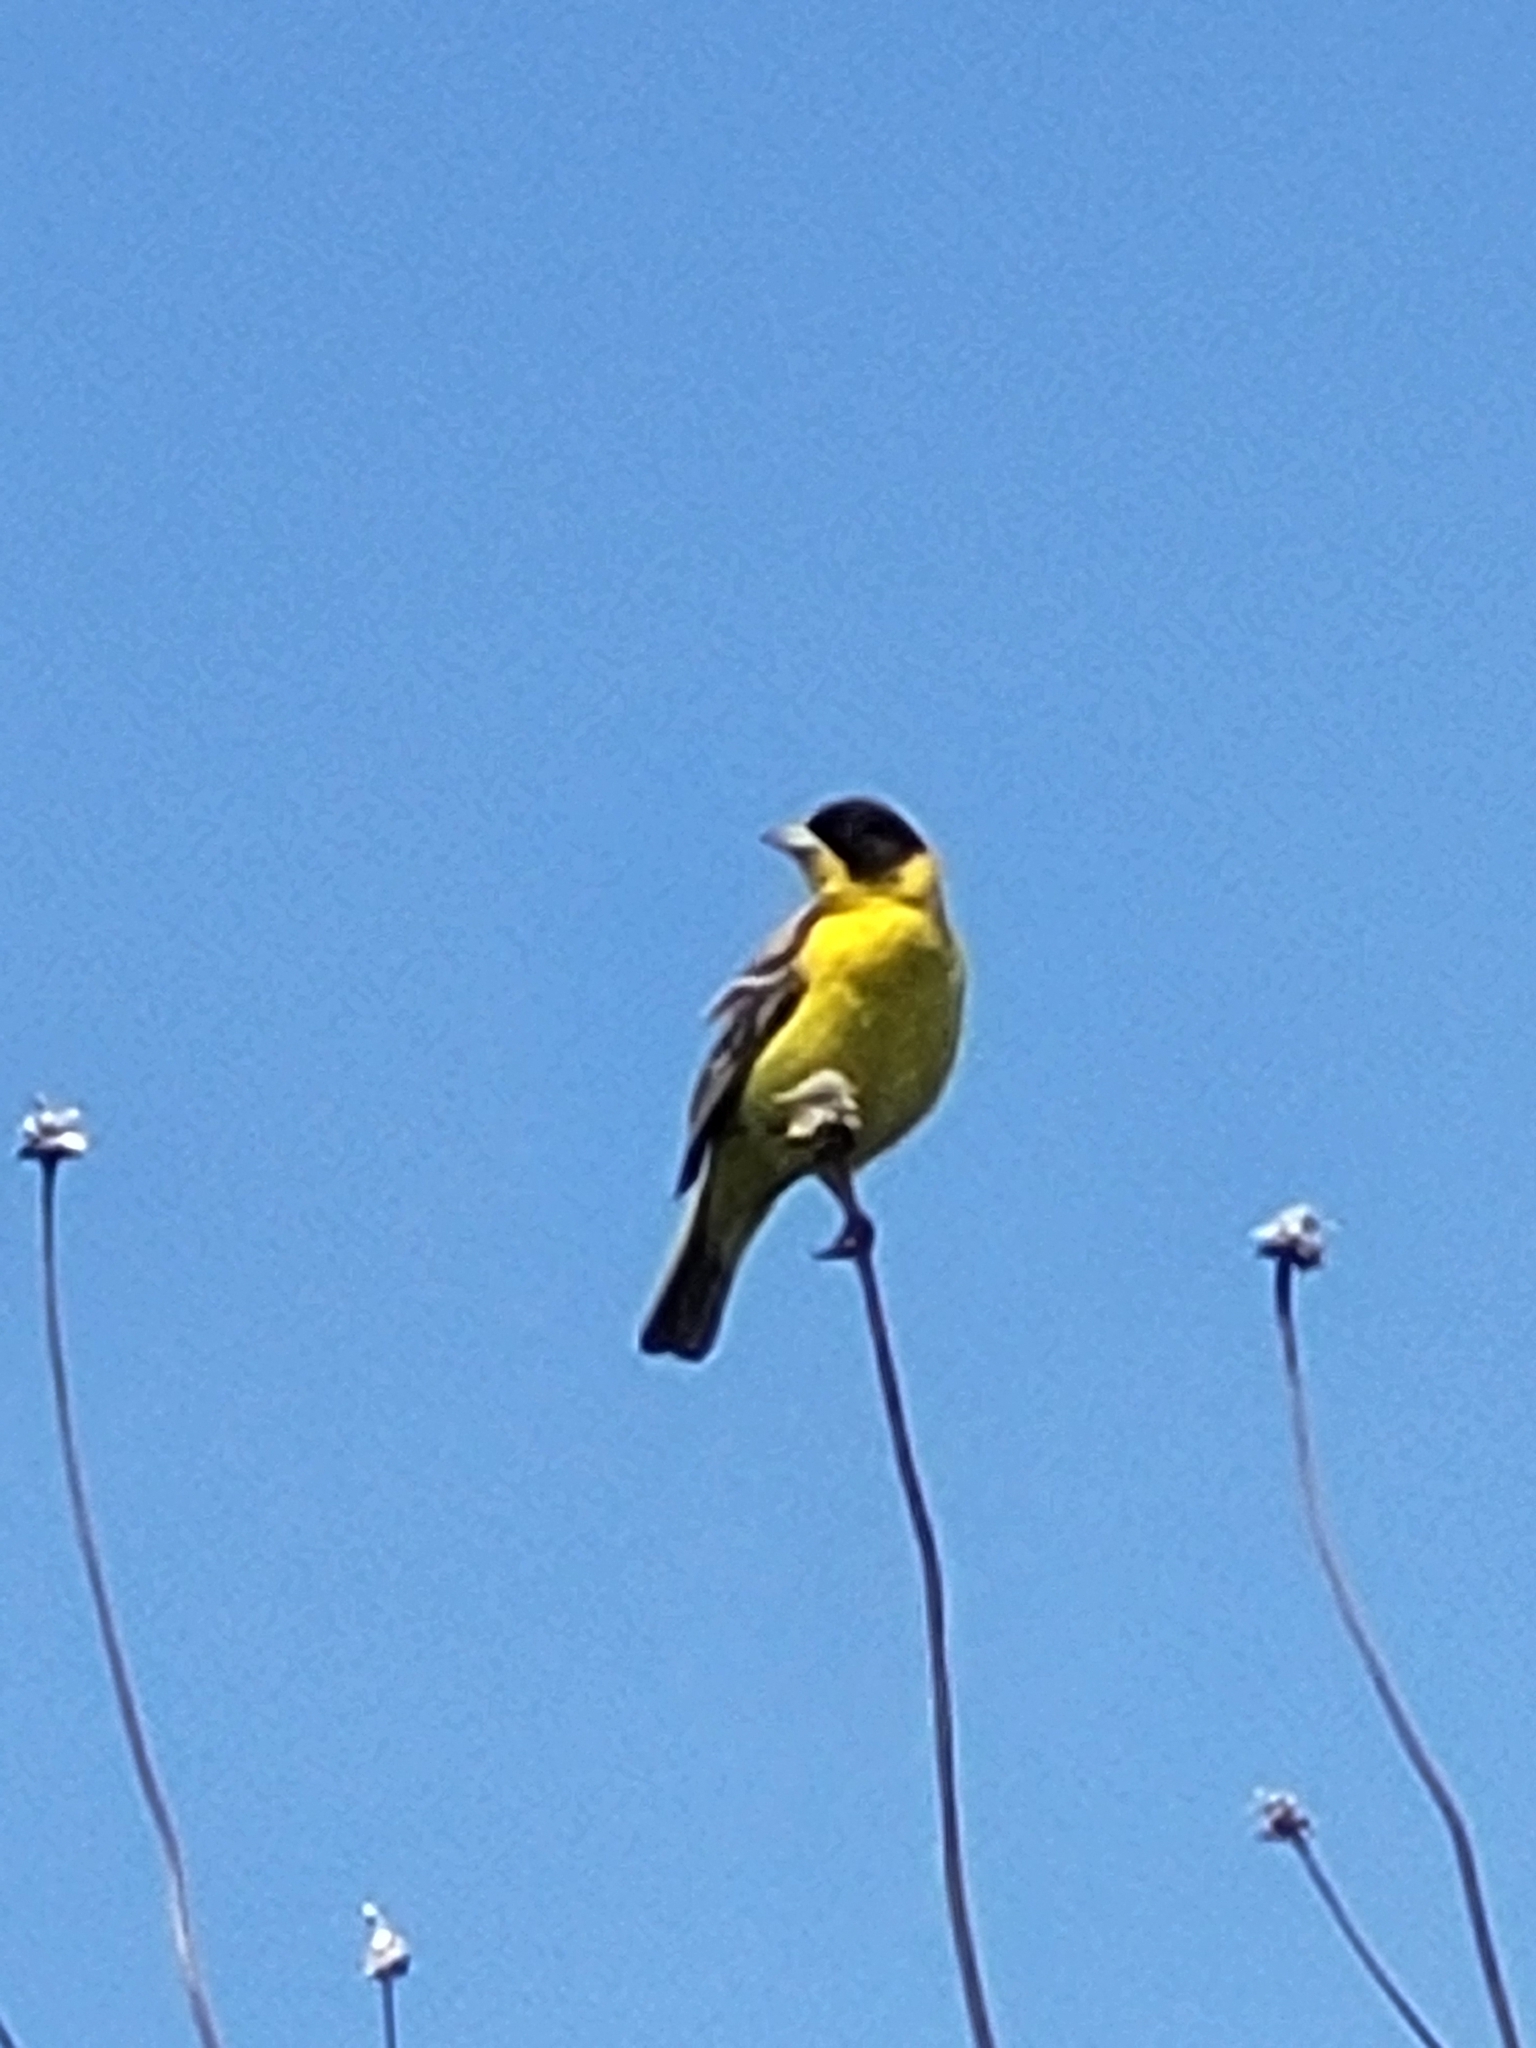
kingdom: Animalia
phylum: Chordata
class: Aves
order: Passeriformes
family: Emberizidae
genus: Emberiza
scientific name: Emberiza melanocephala
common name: Black-headed bunting
